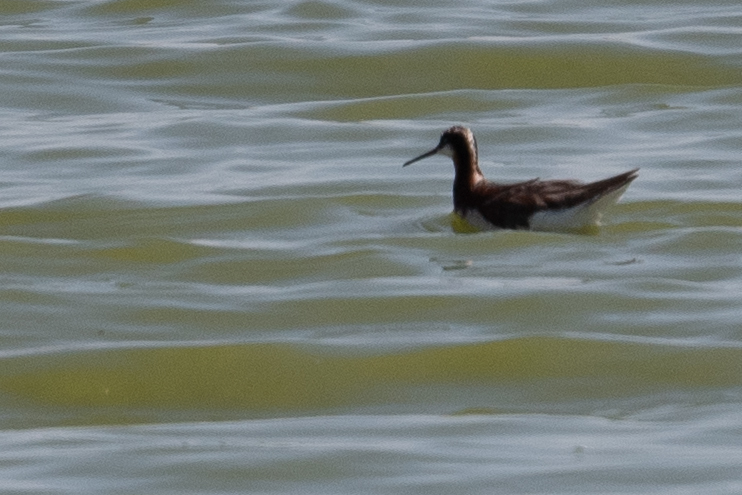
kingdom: Animalia
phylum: Chordata
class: Aves
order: Charadriiformes
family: Scolopacidae
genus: Phalaropus
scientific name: Phalaropus tricolor
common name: Wilson's phalarope
